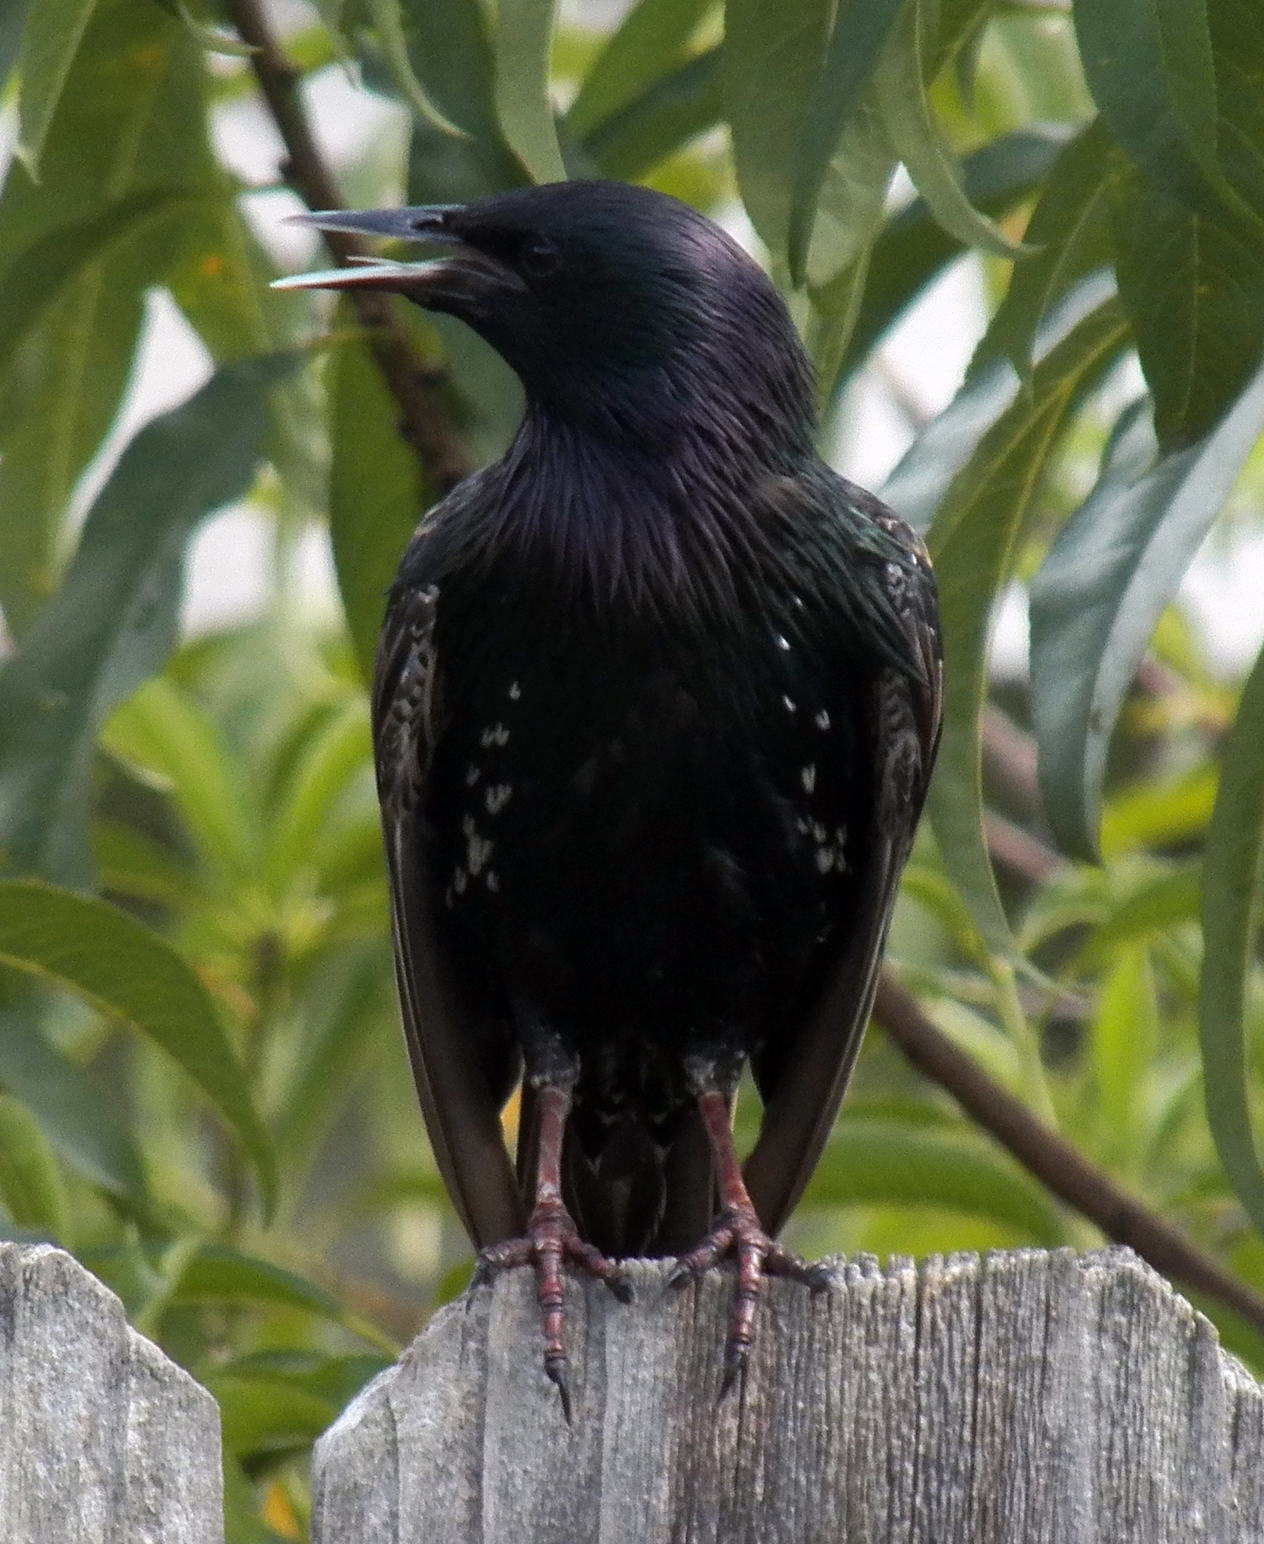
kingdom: Animalia
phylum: Chordata
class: Aves
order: Passeriformes
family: Sturnidae
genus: Sturnus
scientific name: Sturnus vulgaris
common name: Common starling
